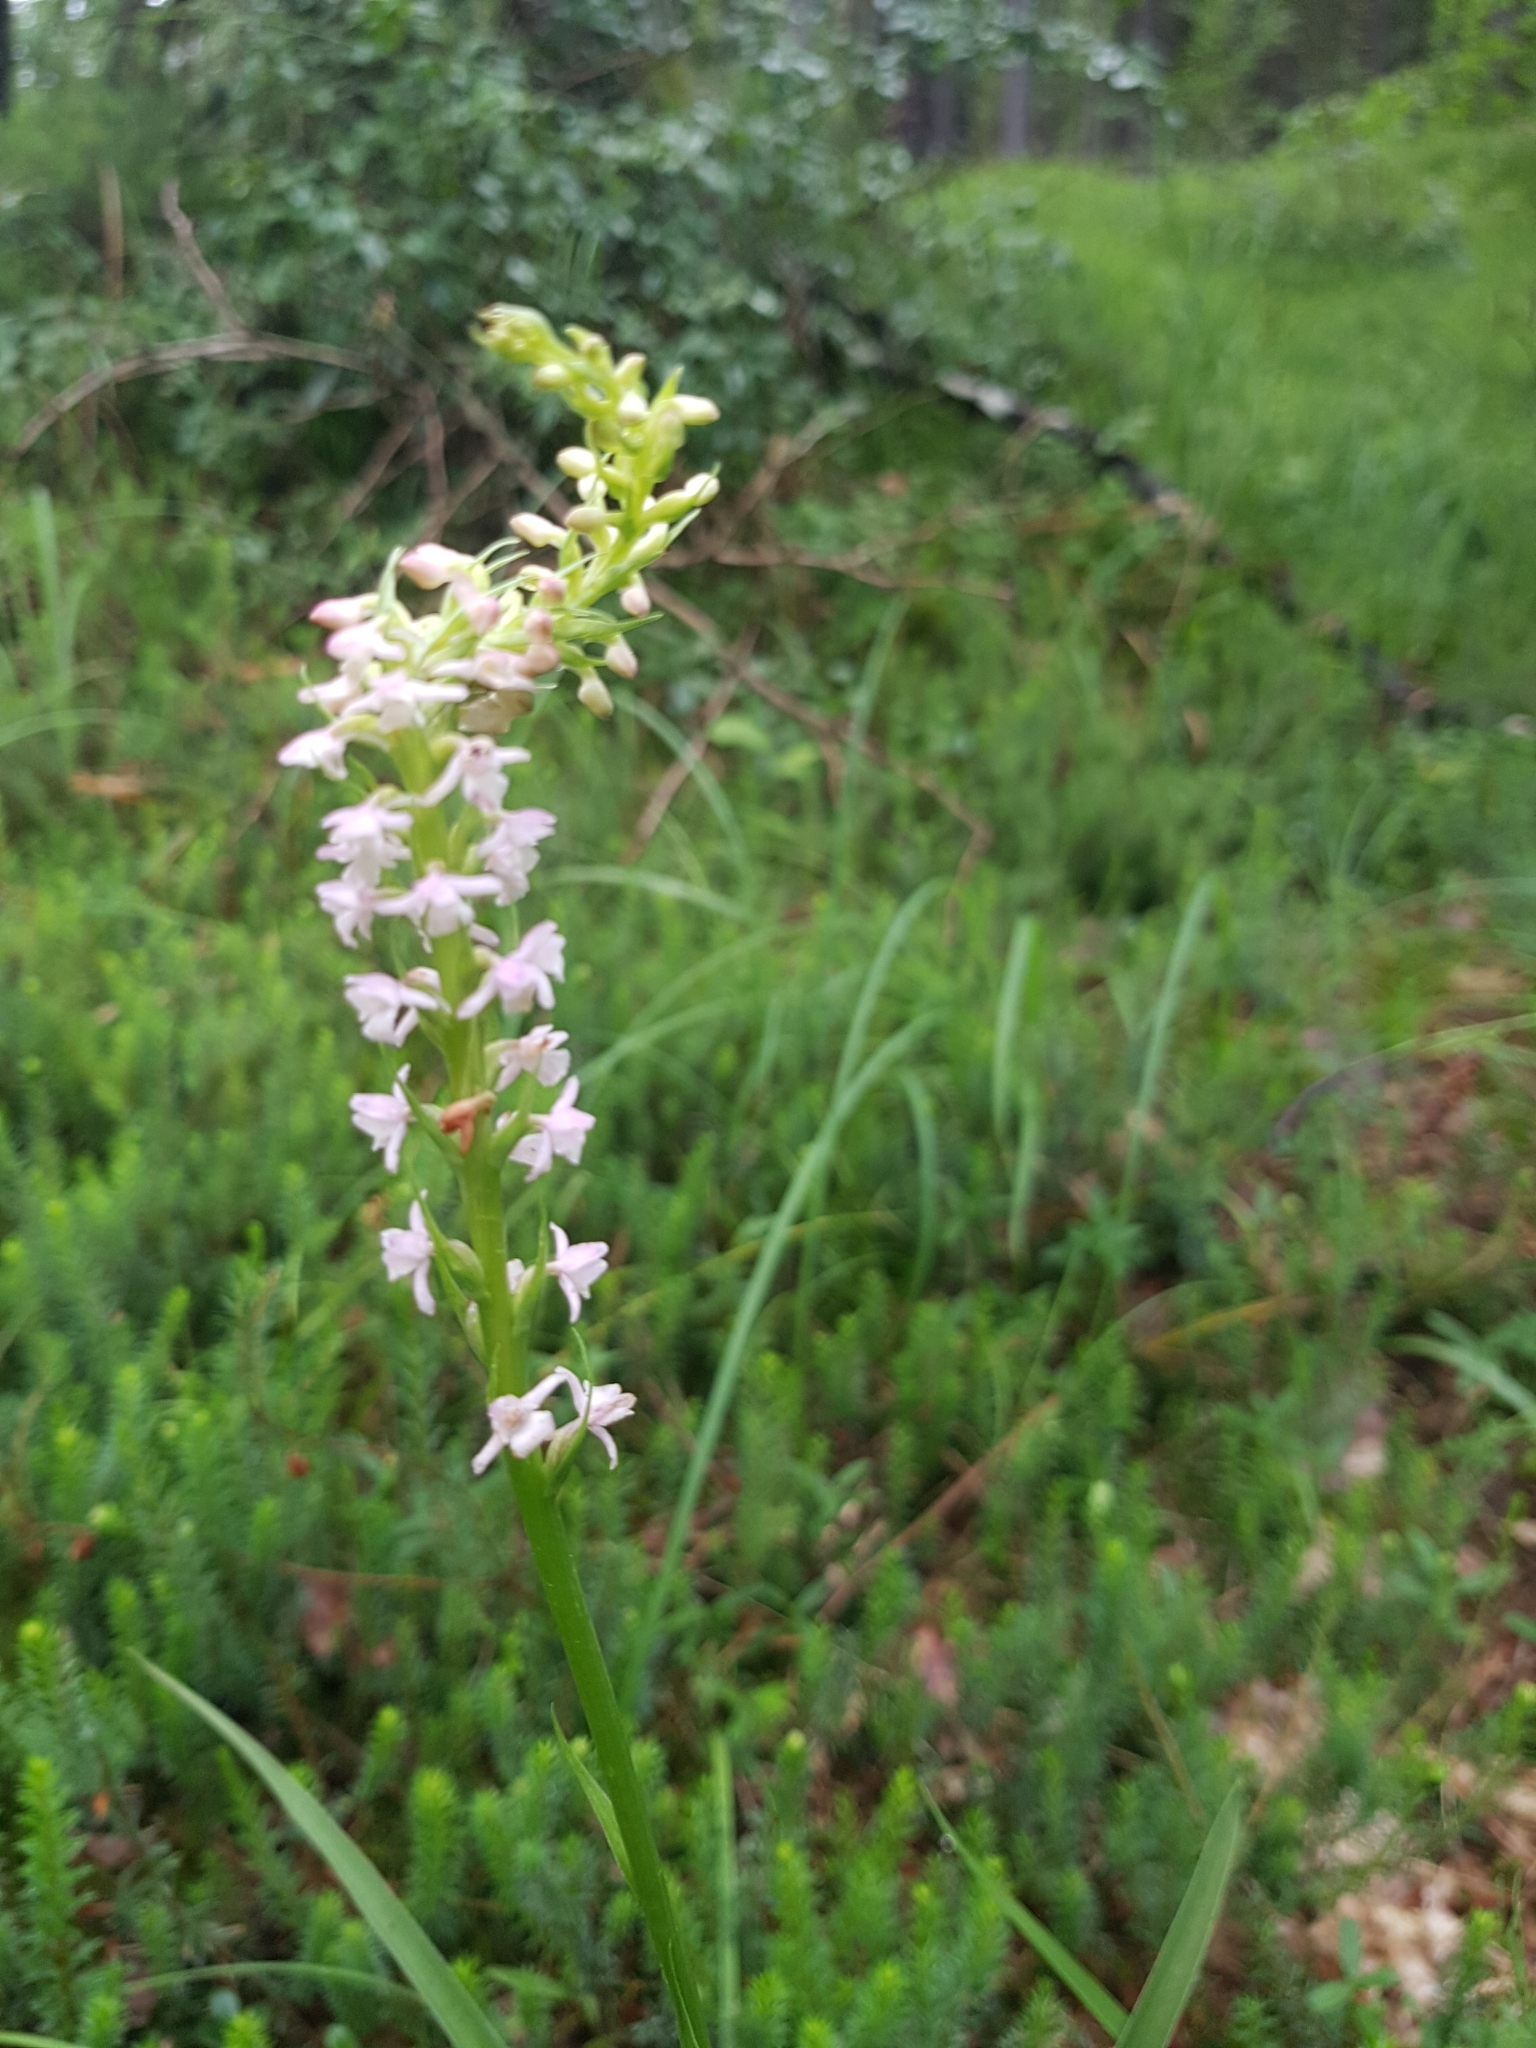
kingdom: Plantae
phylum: Tracheophyta
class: Liliopsida
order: Asparagales
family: Orchidaceae
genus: Gymnadenia
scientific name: Gymnadenia odoratissima
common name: Scented gymnadenia
